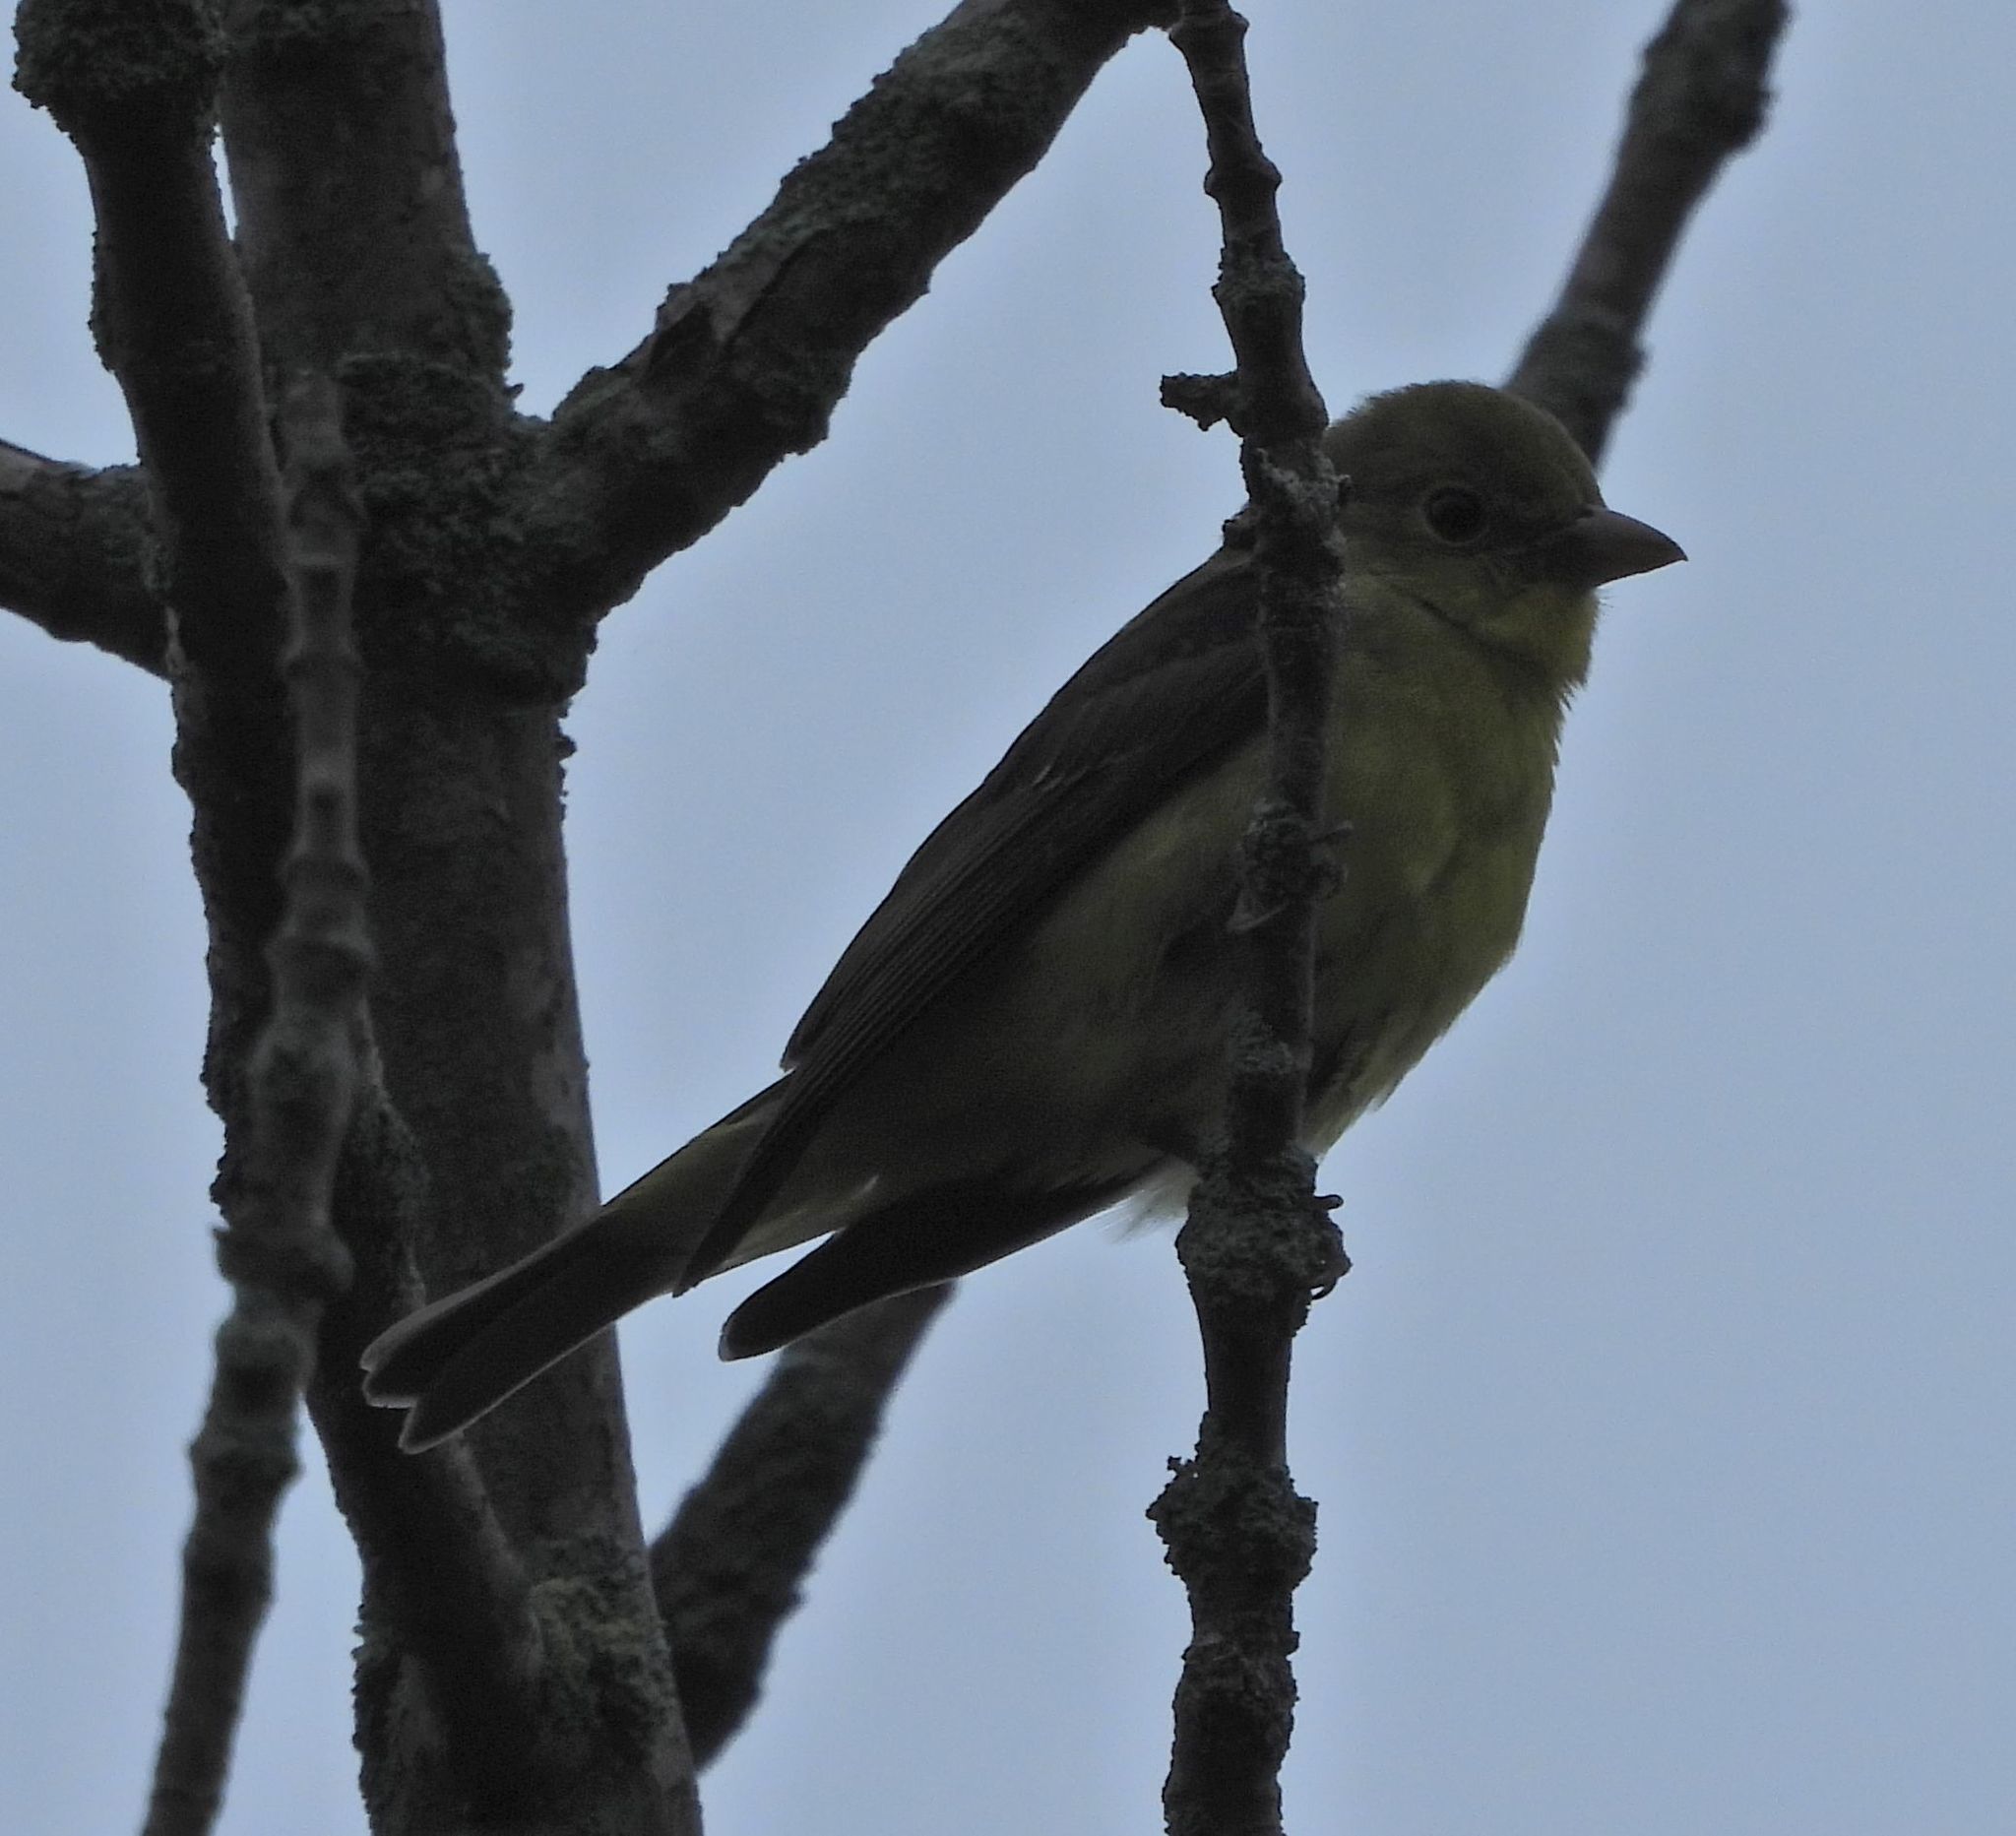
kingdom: Animalia
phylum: Chordata
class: Aves
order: Passeriformes
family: Cardinalidae
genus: Piranga
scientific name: Piranga olivacea
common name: Scarlet tanager
